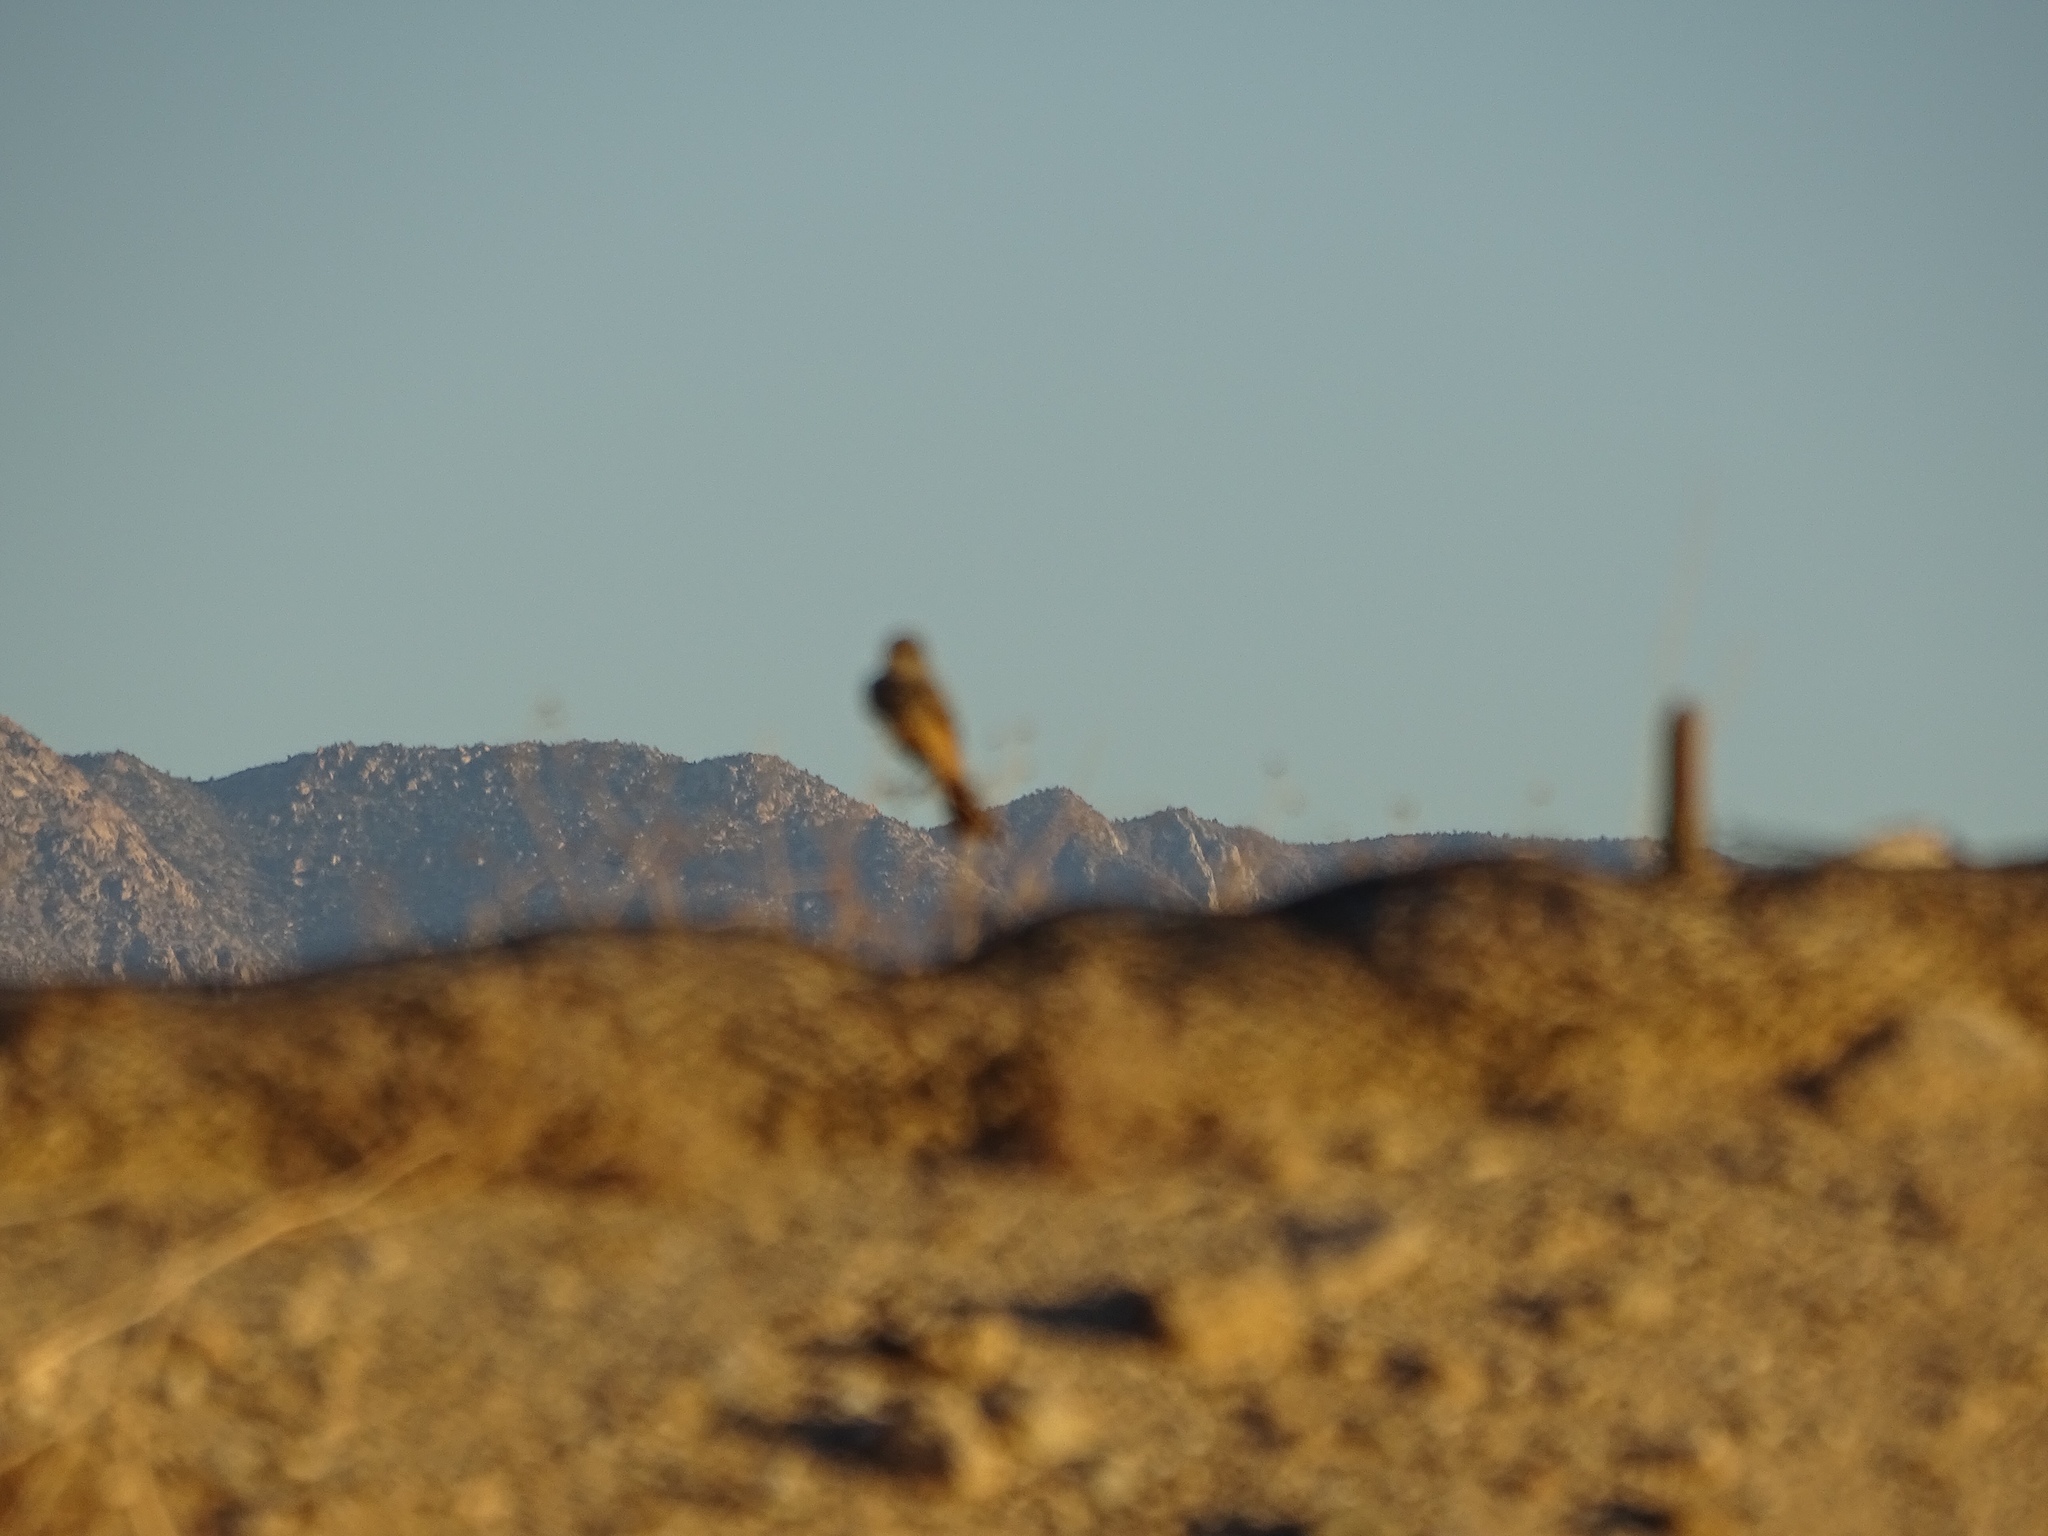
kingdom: Animalia
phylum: Chordata
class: Aves
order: Passeriformes
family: Tyrannidae
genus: Sayornis
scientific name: Sayornis saya
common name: Say's phoebe
